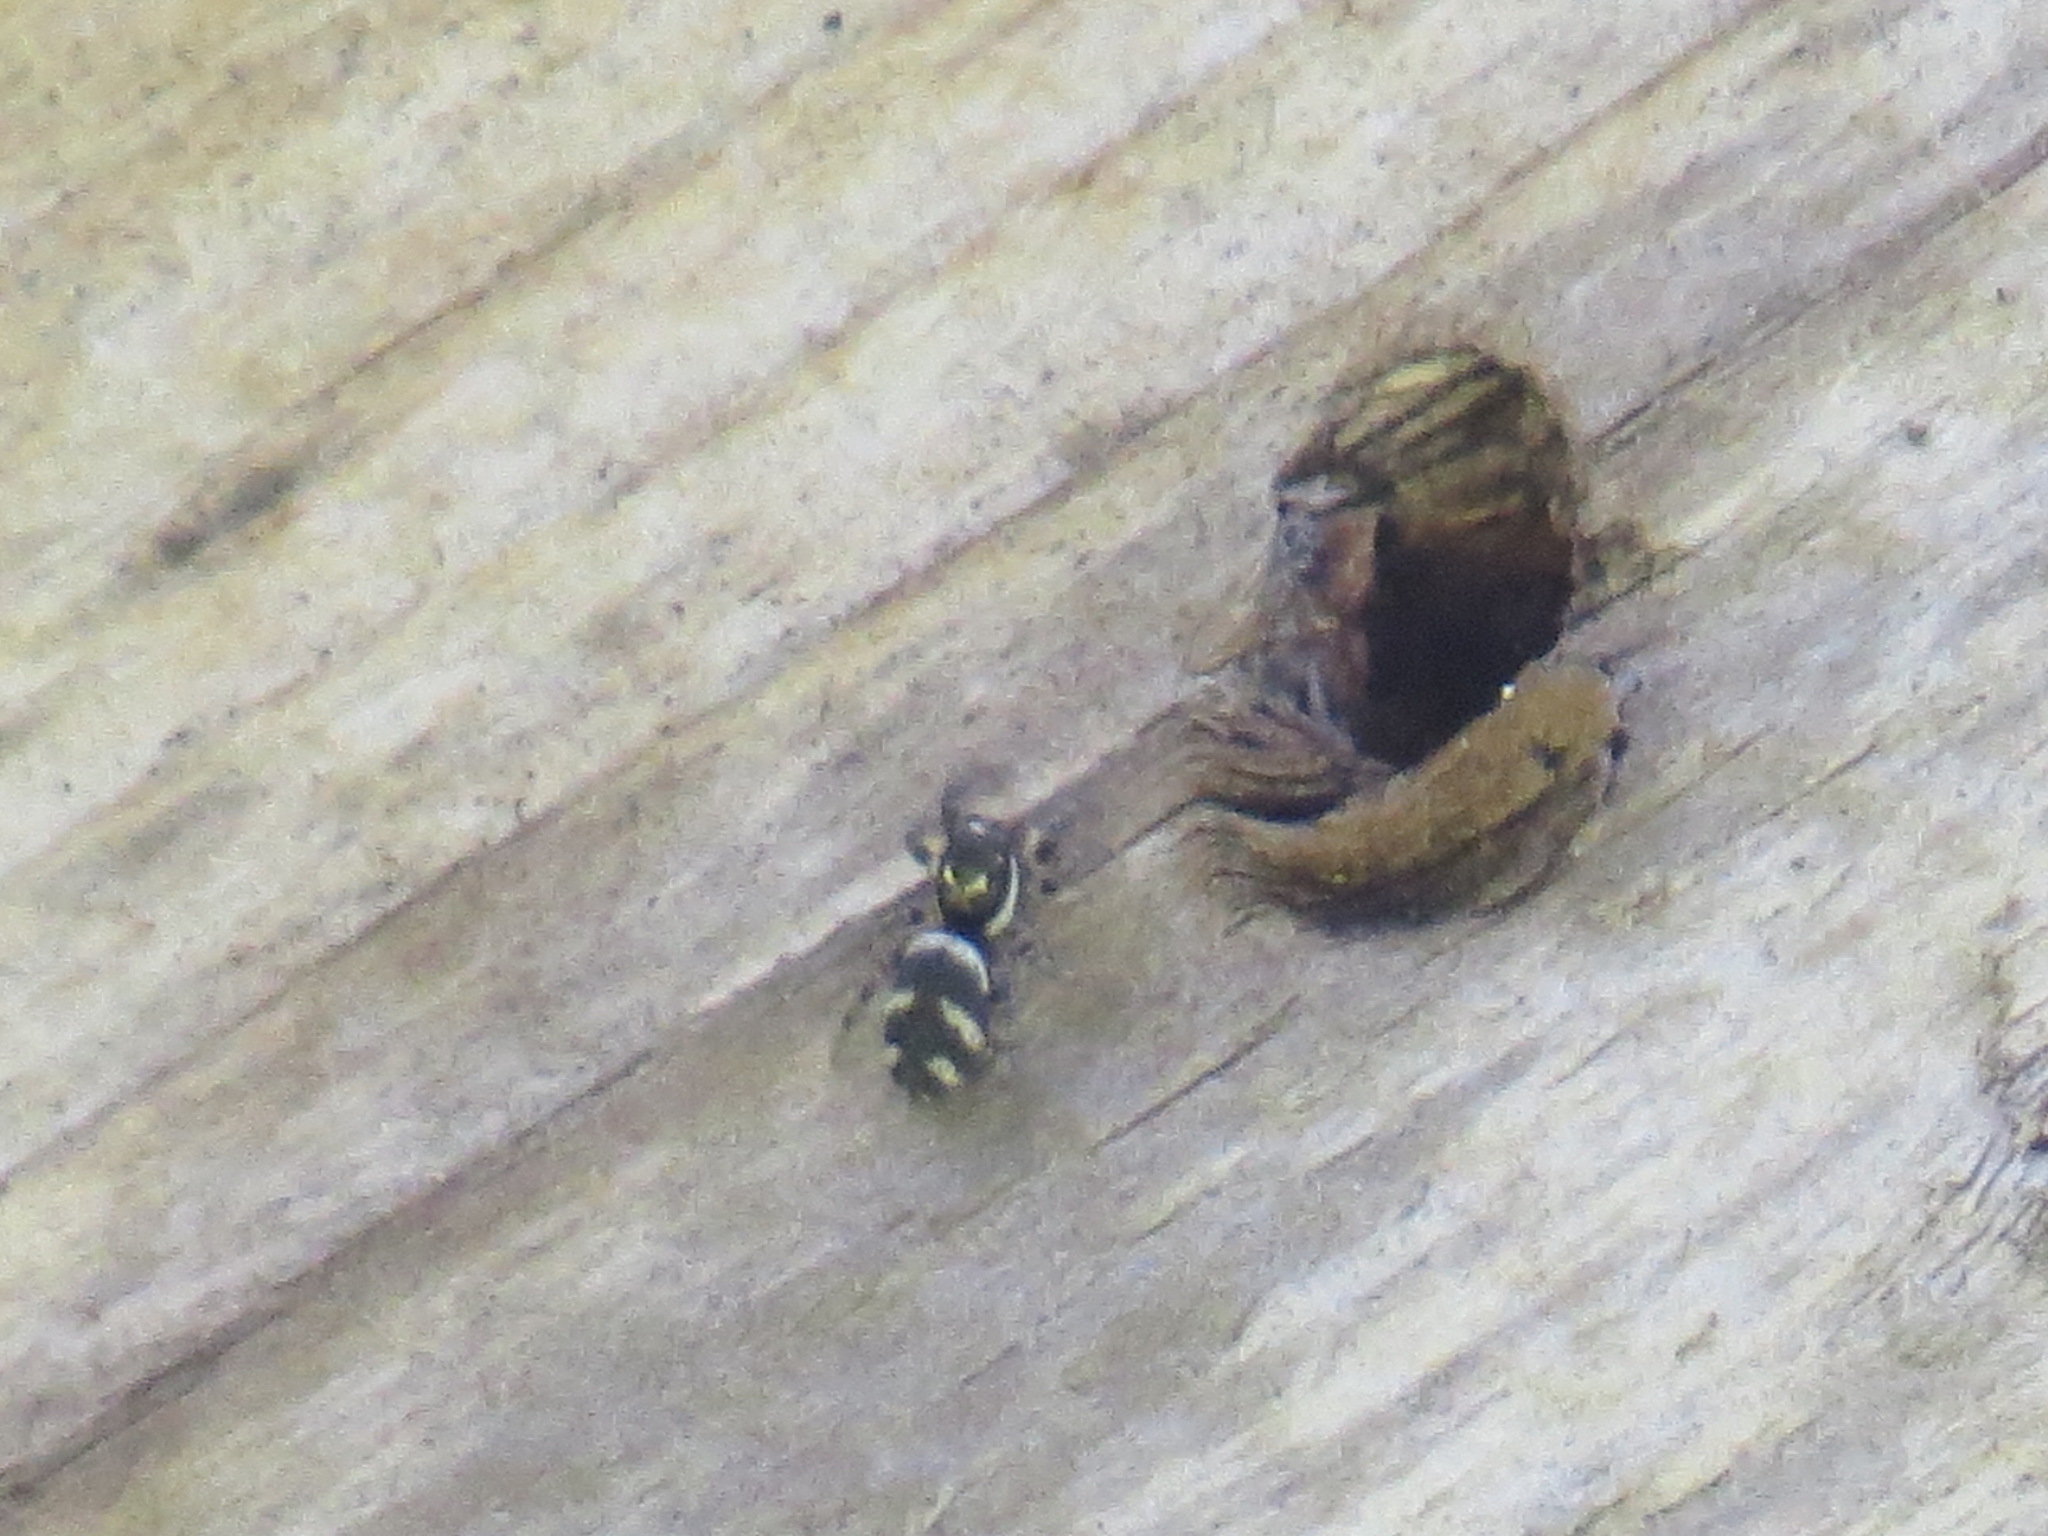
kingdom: Animalia
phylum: Arthropoda
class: Arachnida
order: Araneae
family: Salticidae
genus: Salticus
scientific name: Salticus scenicus
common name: Zebra jumper
